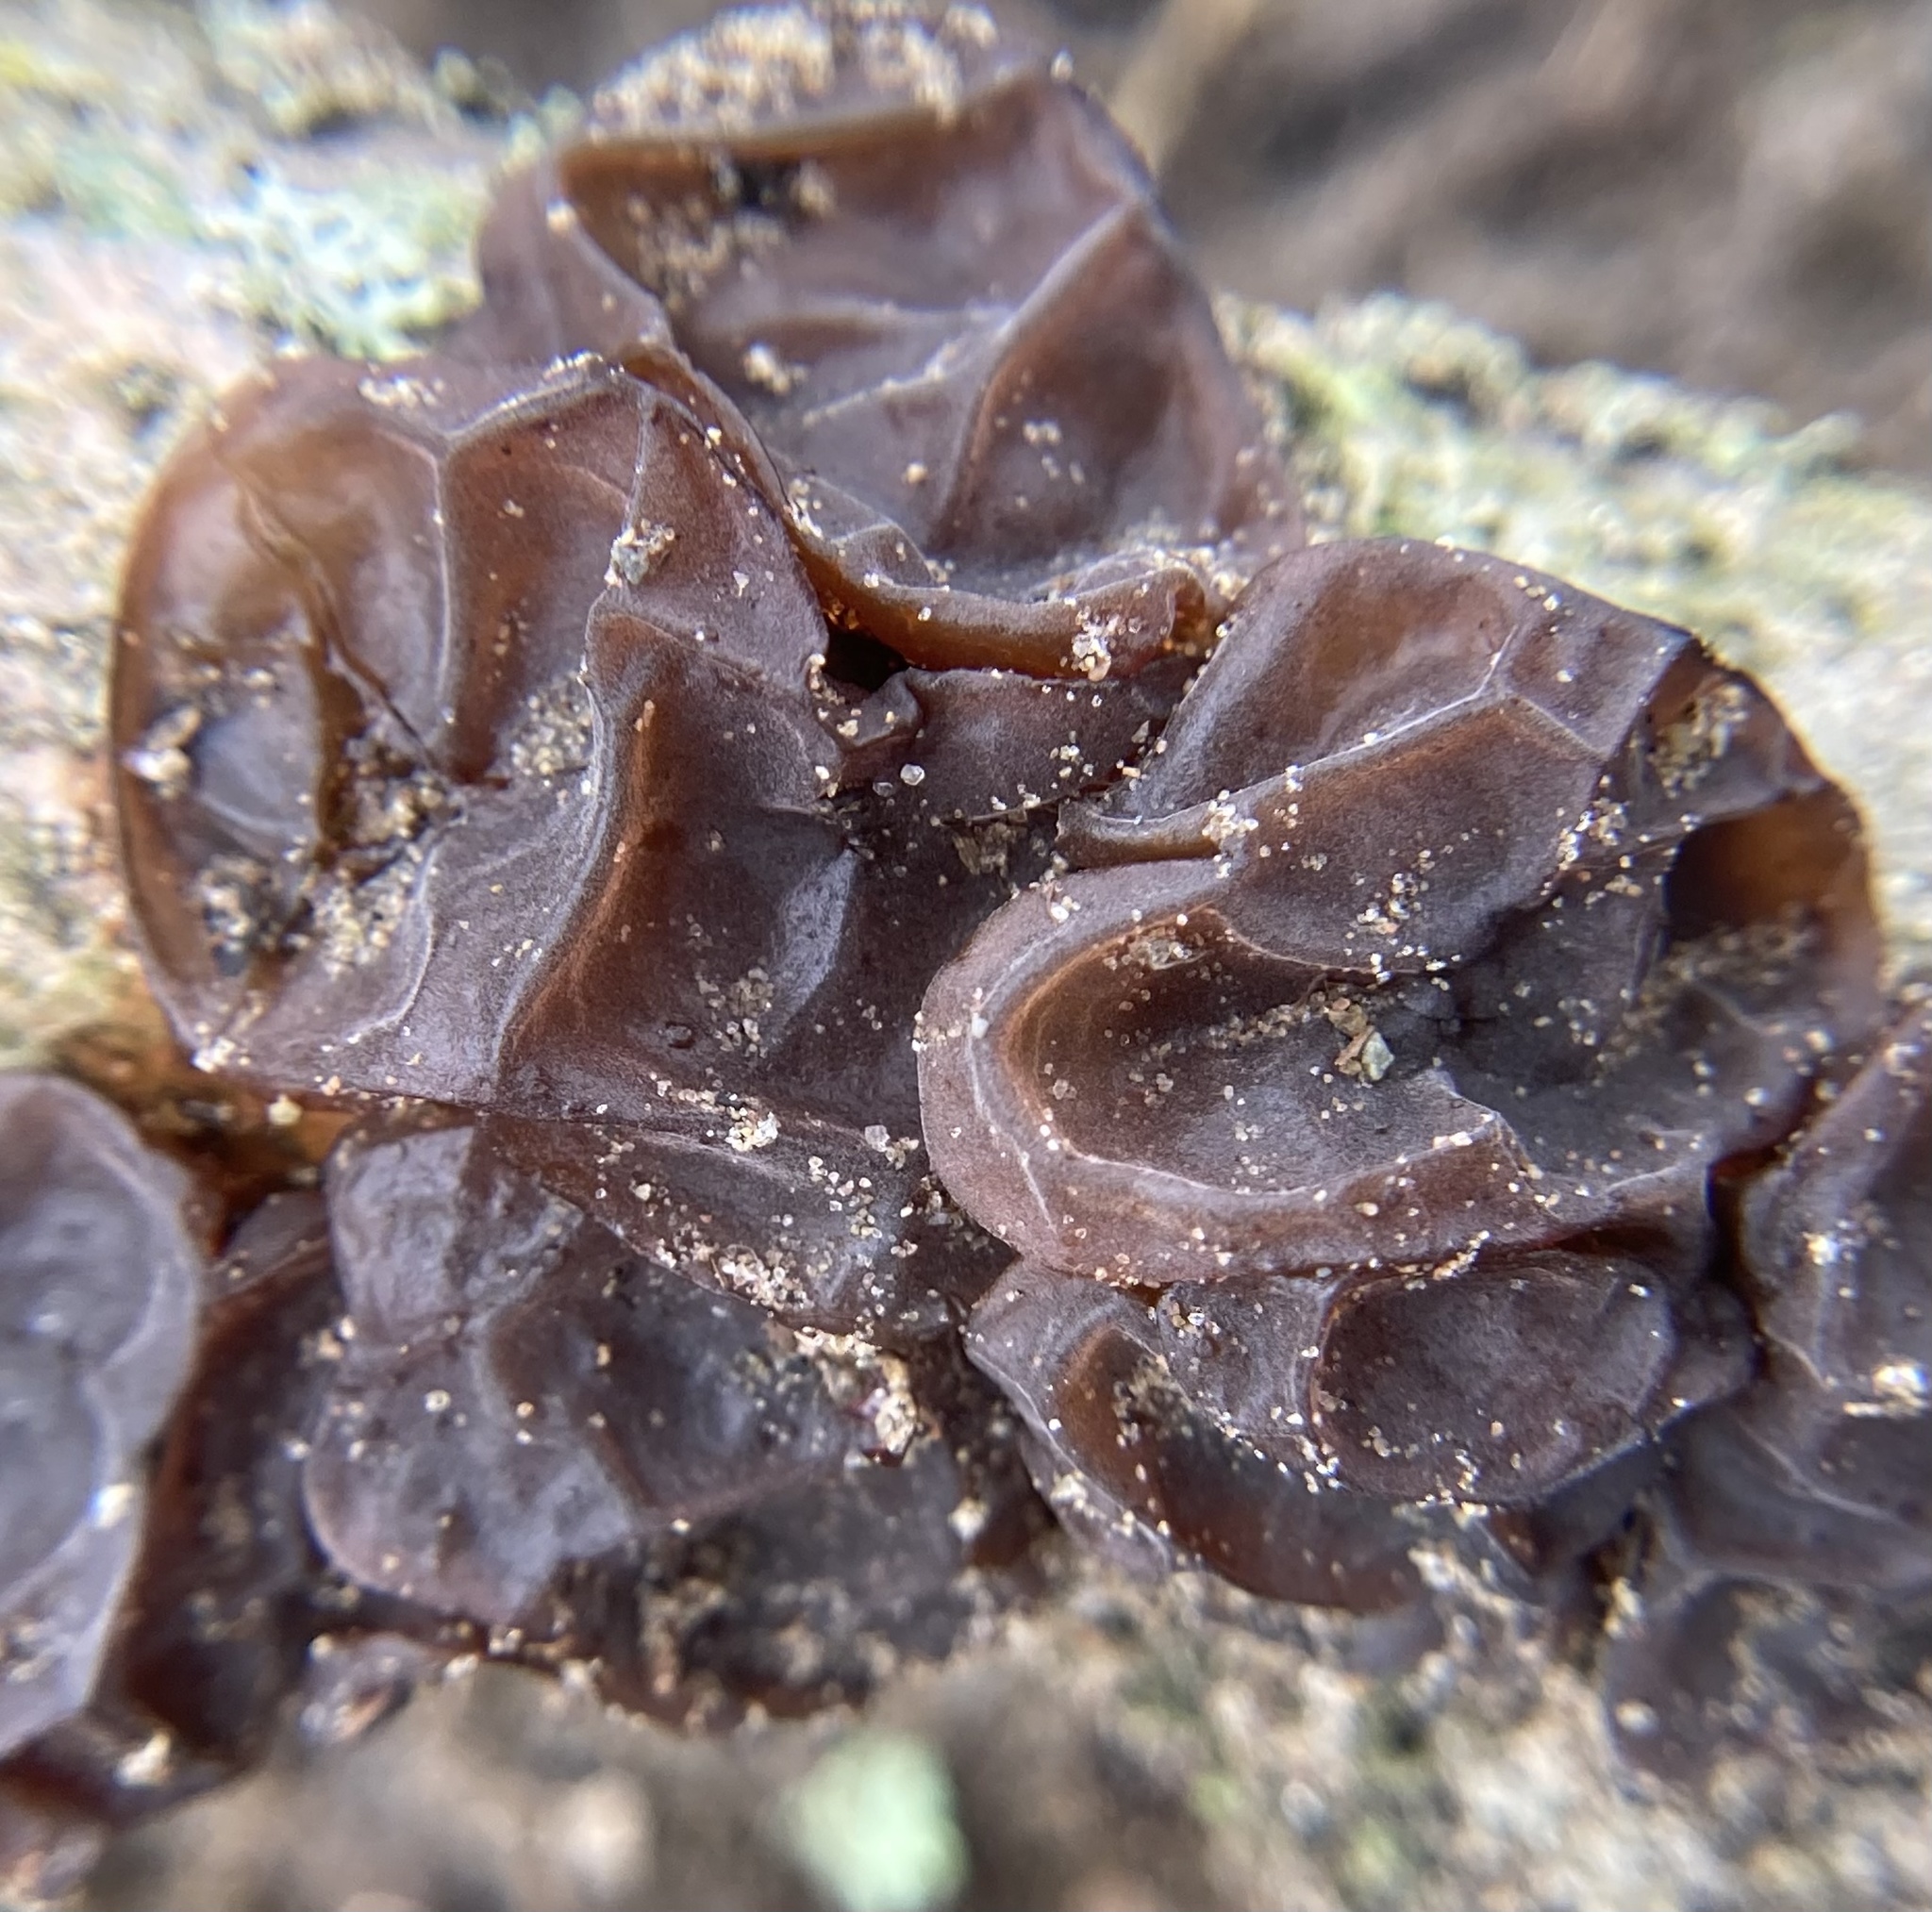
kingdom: Fungi
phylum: Basidiomycota
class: Agaricomycetes
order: Auriculariales
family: Auriculariaceae
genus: Exidia
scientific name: Exidia
